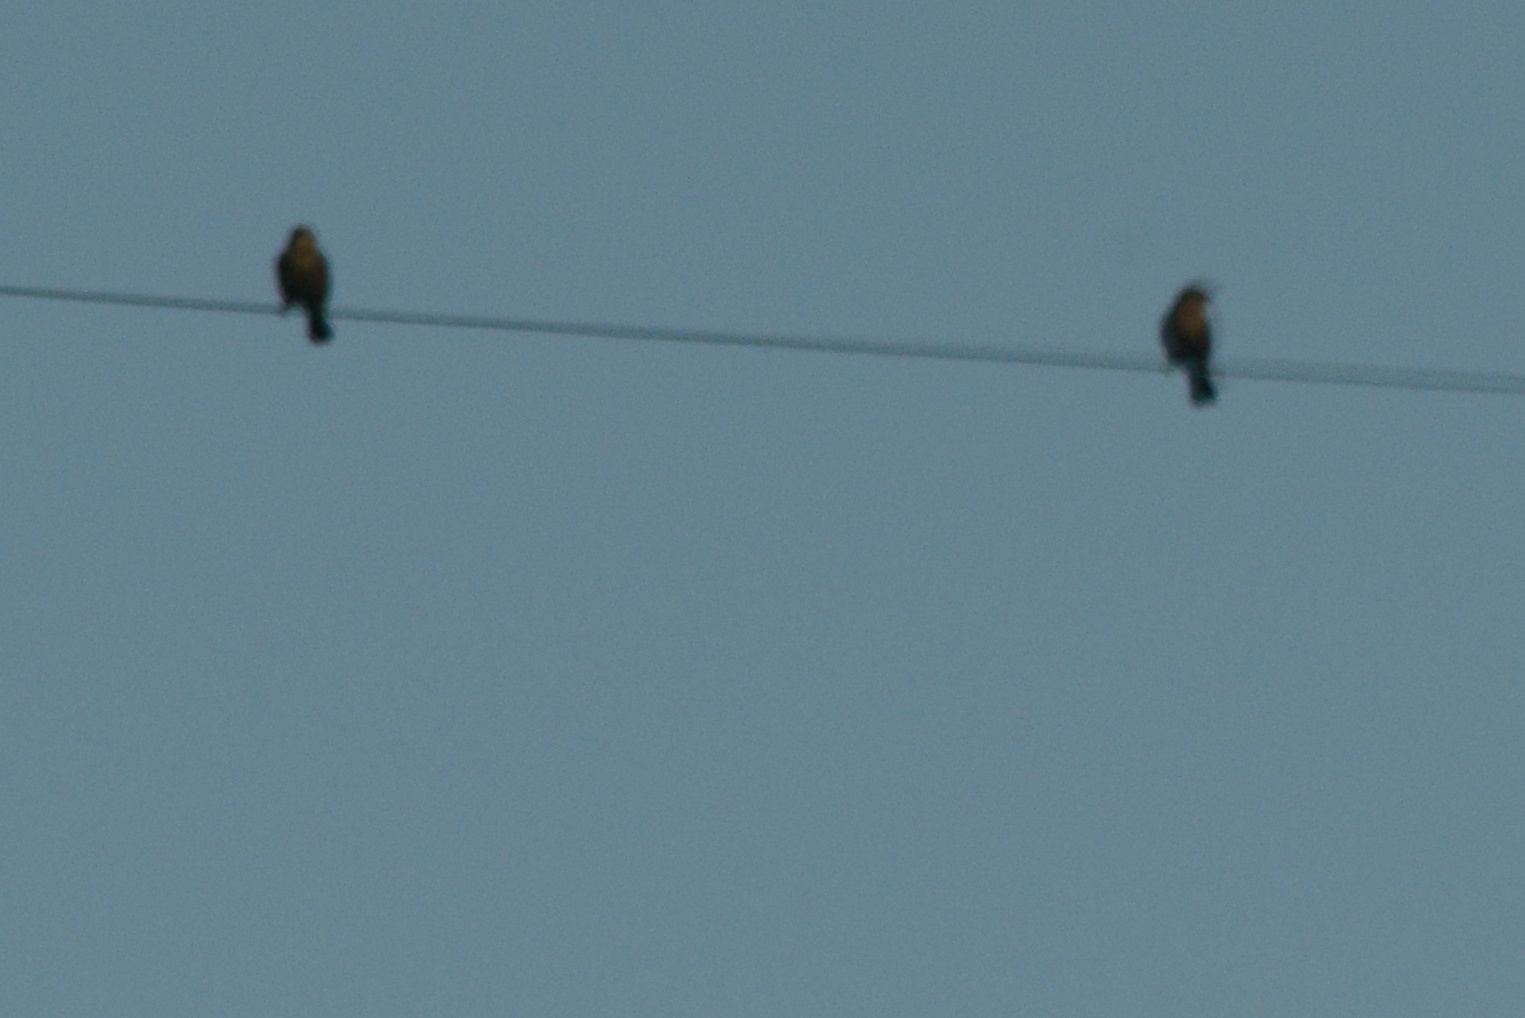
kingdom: Animalia
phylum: Chordata
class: Aves
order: Passeriformes
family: Icteridae
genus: Euphagus
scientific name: Euphagus cyanocephalus
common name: Brewer's blackbird
